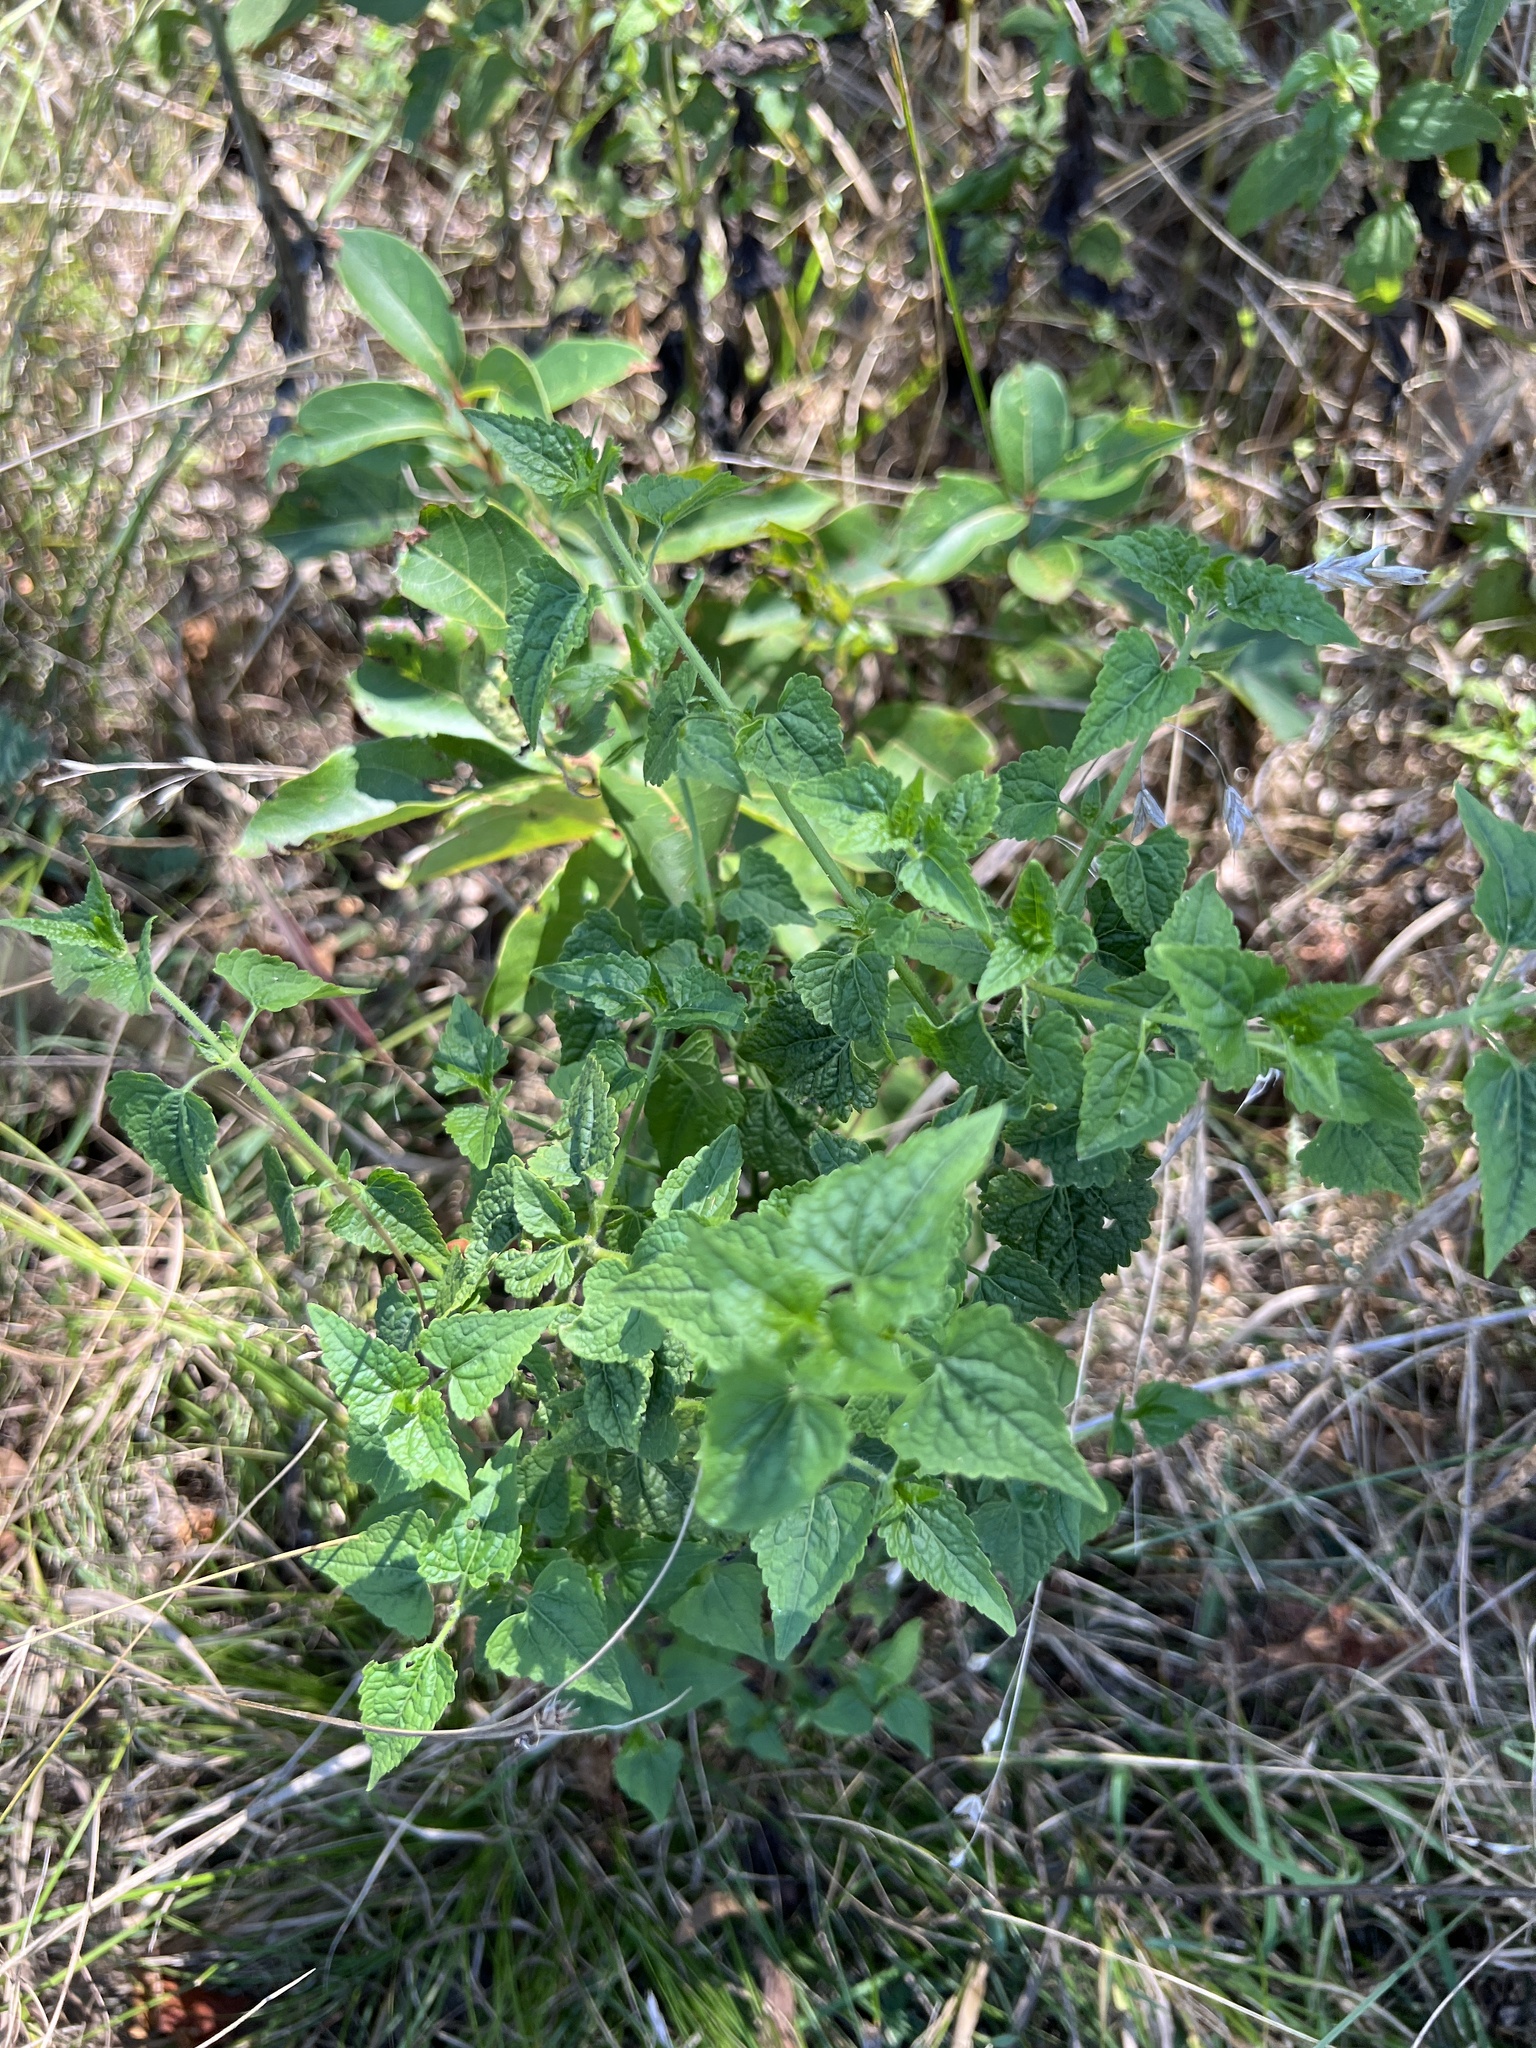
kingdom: Plantae
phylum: Tracheophyta
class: Magnoliopsida
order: Asterales
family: Asteraceae
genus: Fleischmannia
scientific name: Fleischmannia incarnata
